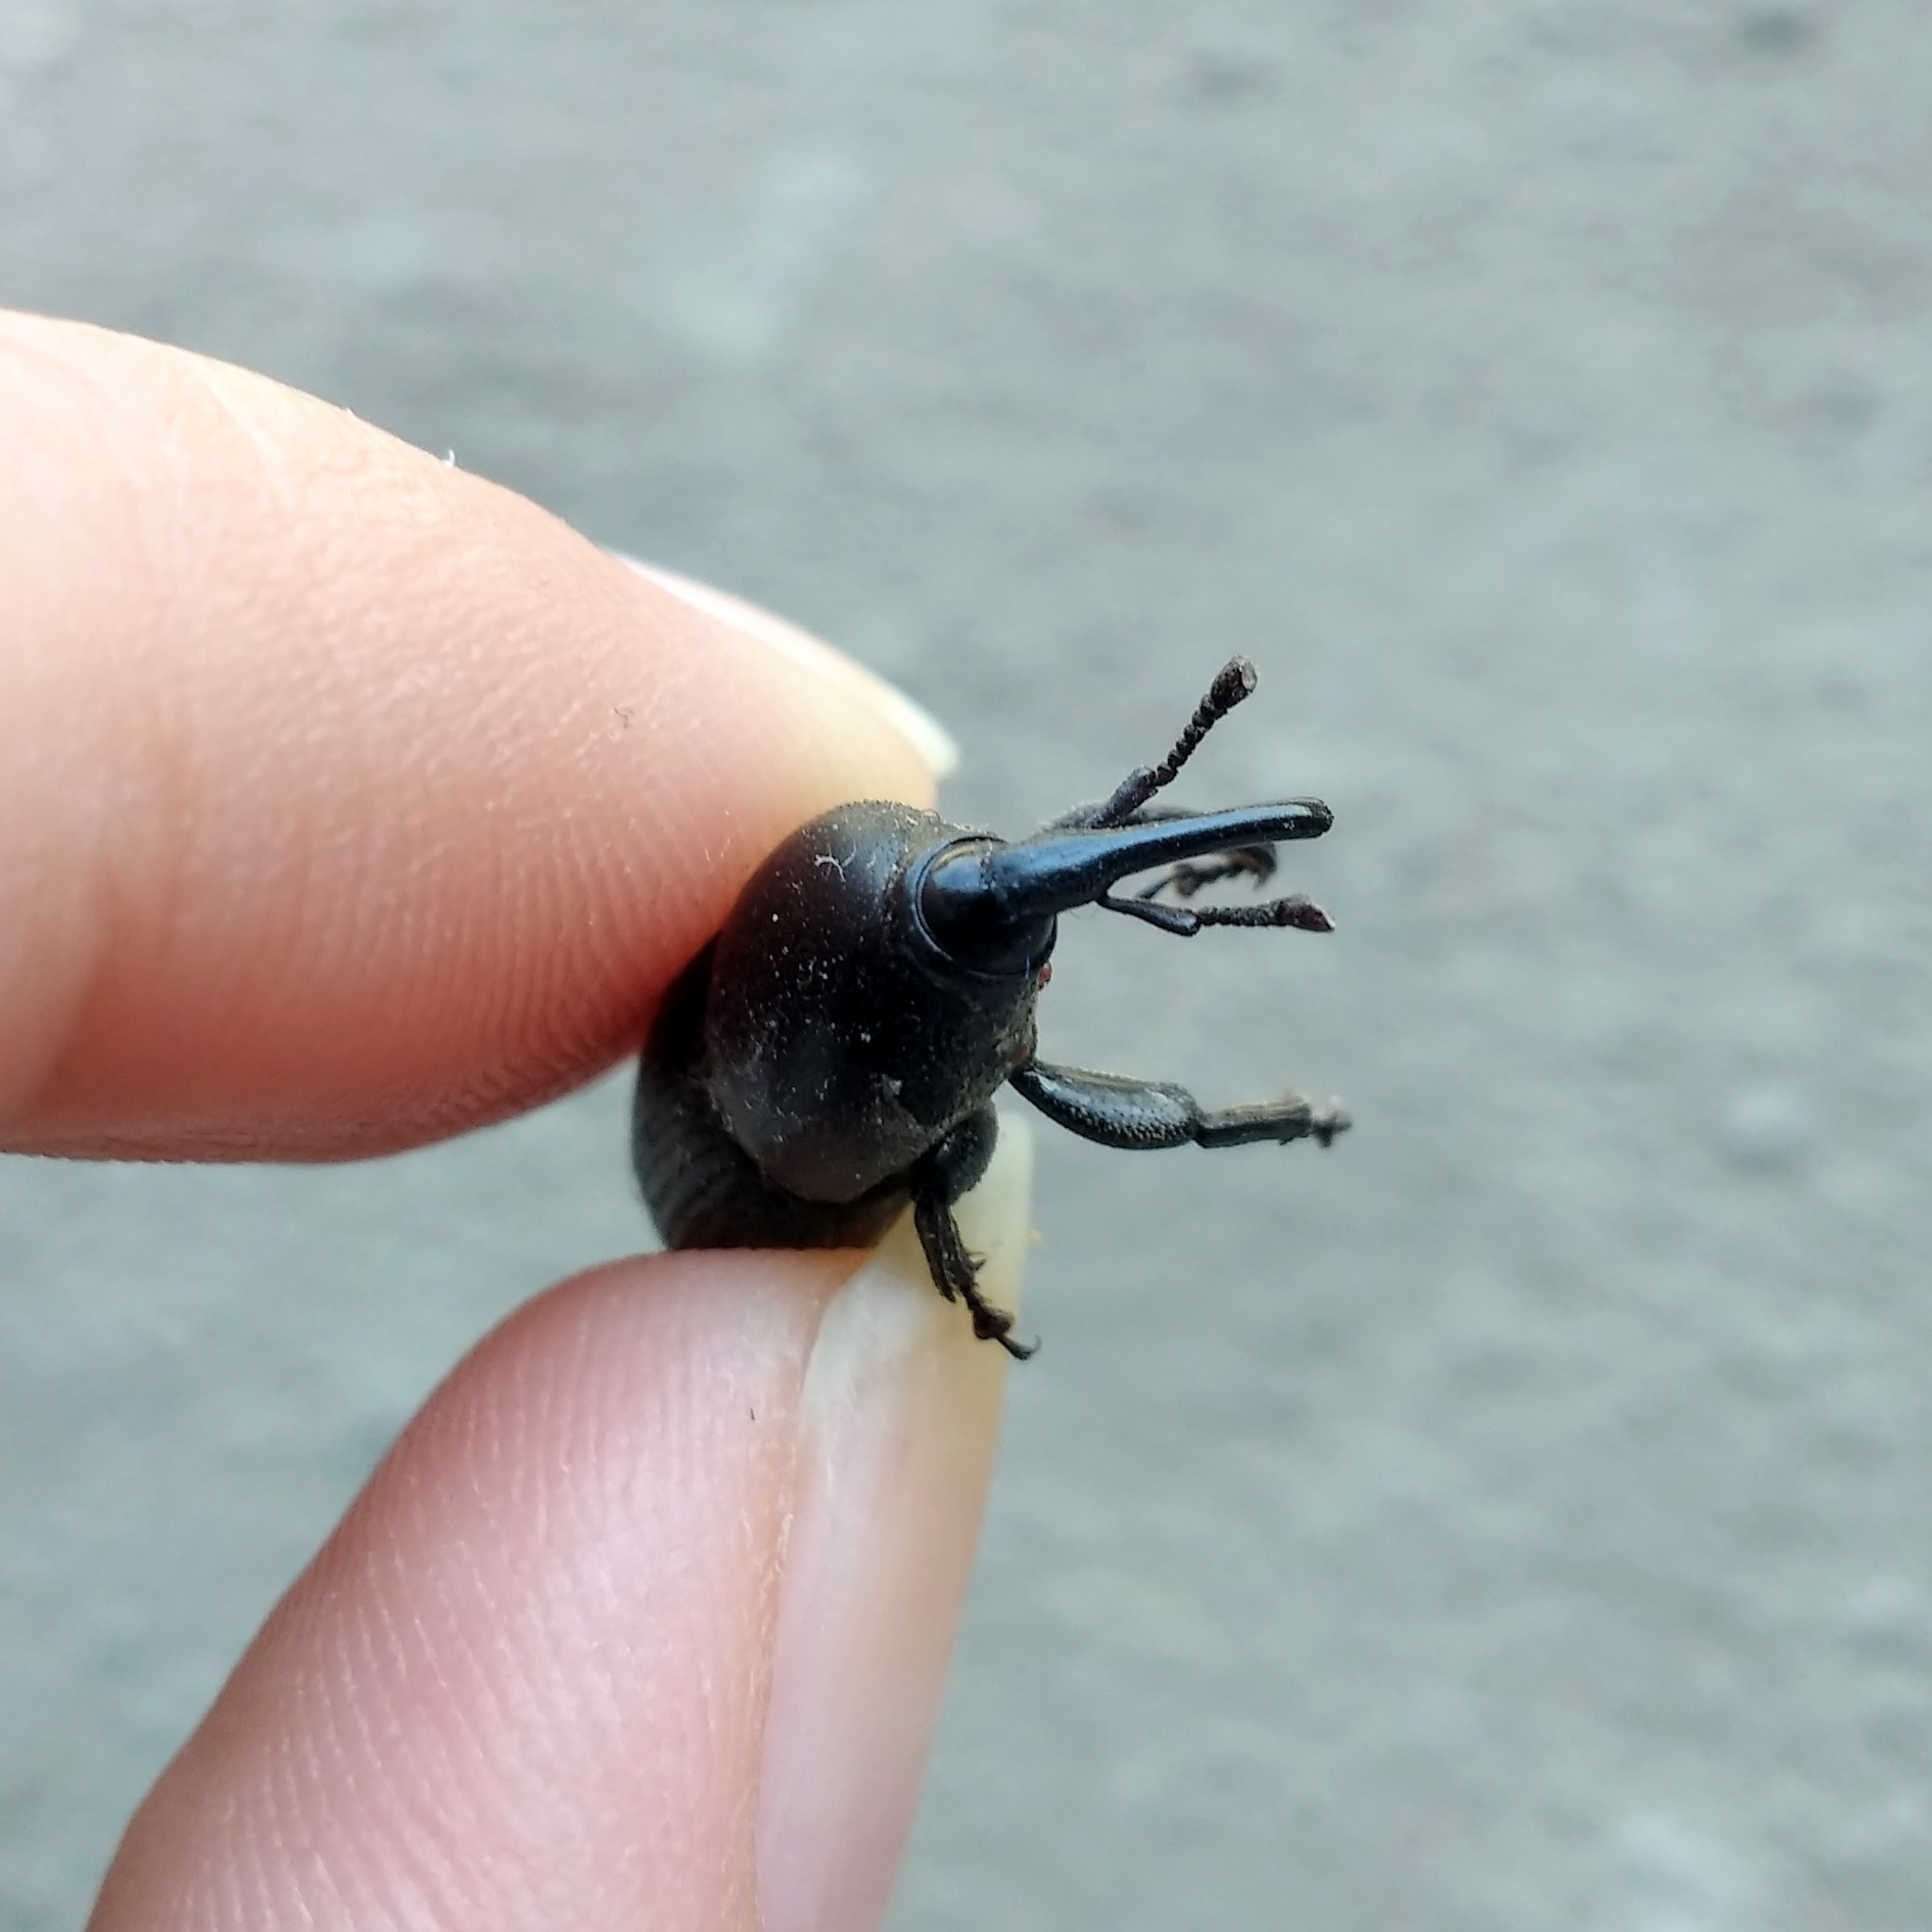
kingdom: Animalia
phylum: Arthropoda
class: Insecta
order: Coleoptera
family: Dryophthoridae
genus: Scyphophorus
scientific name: Scyphophorus acupunctatus
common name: Weevil
